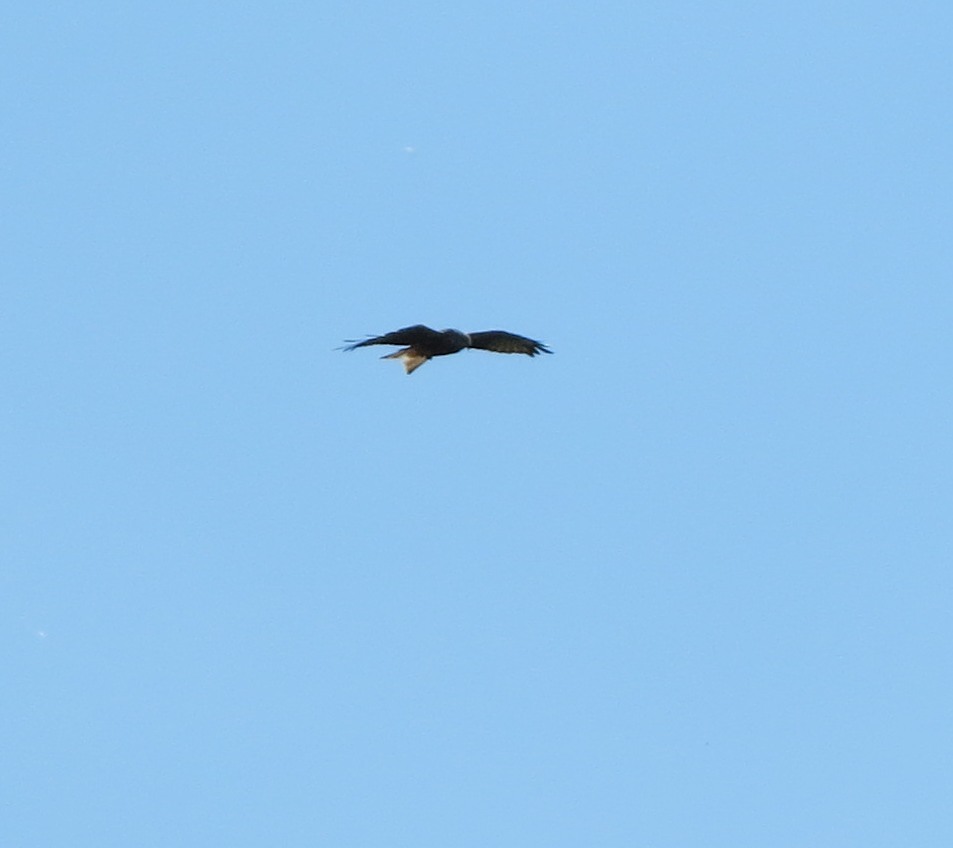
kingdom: Animalia
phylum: Chordata
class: Aves
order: Accipitriformes
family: Accipitridae
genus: Milvus
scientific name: Milvus milvus
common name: Red kite
